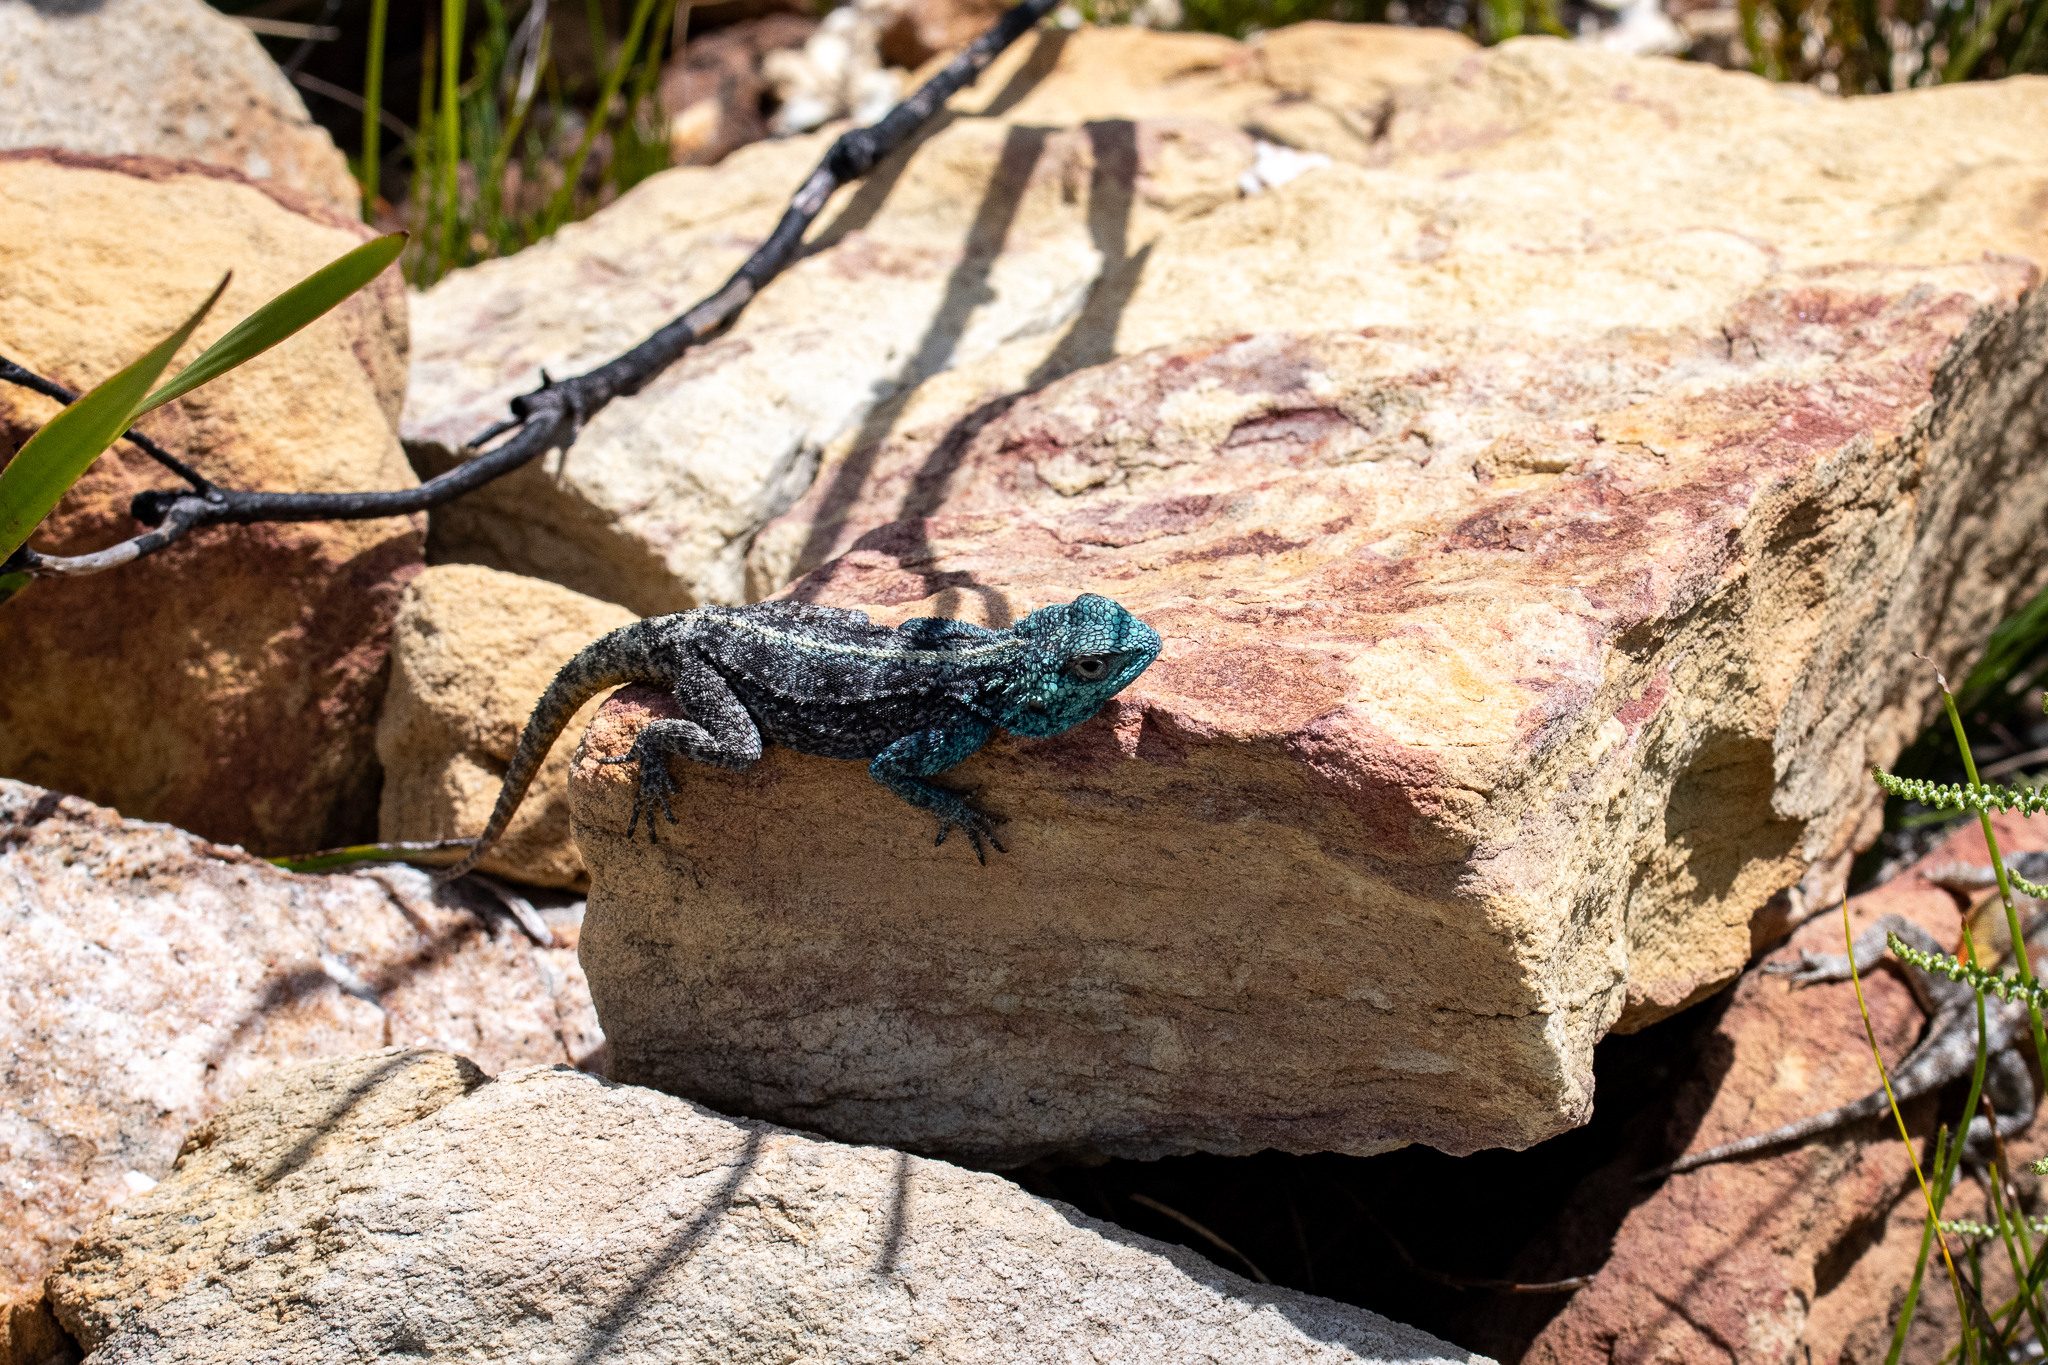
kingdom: Animalia
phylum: Chordata
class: Squamata
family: Agamidae
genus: Agama
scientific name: Agama atra
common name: Southern african rock agama
